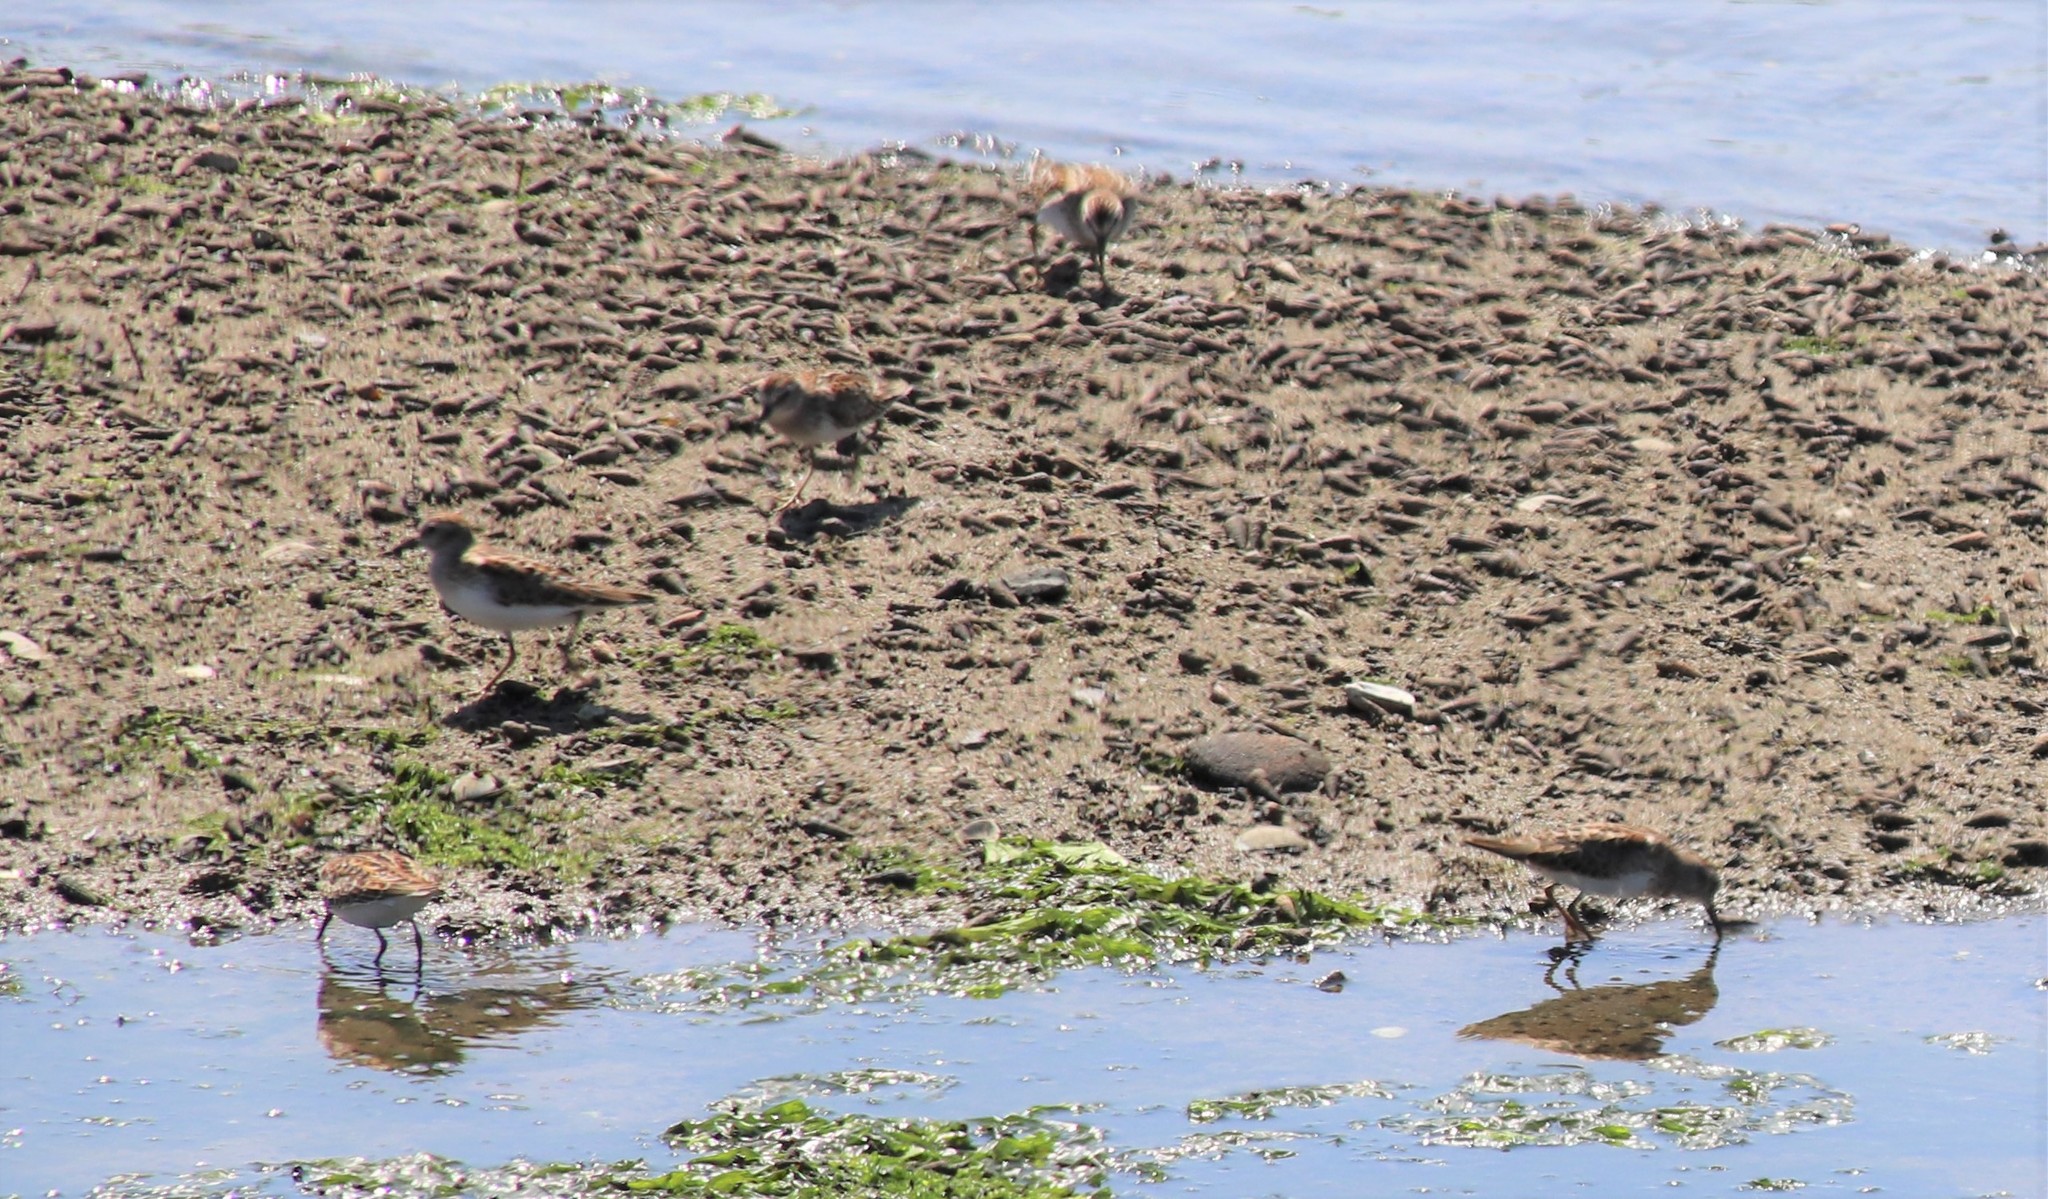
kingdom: Animalia
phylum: Chordata
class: Aves
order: Charadriiformes
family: Scolopacidae
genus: Calidris
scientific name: Calidris minutilla
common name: Least sandpiper
